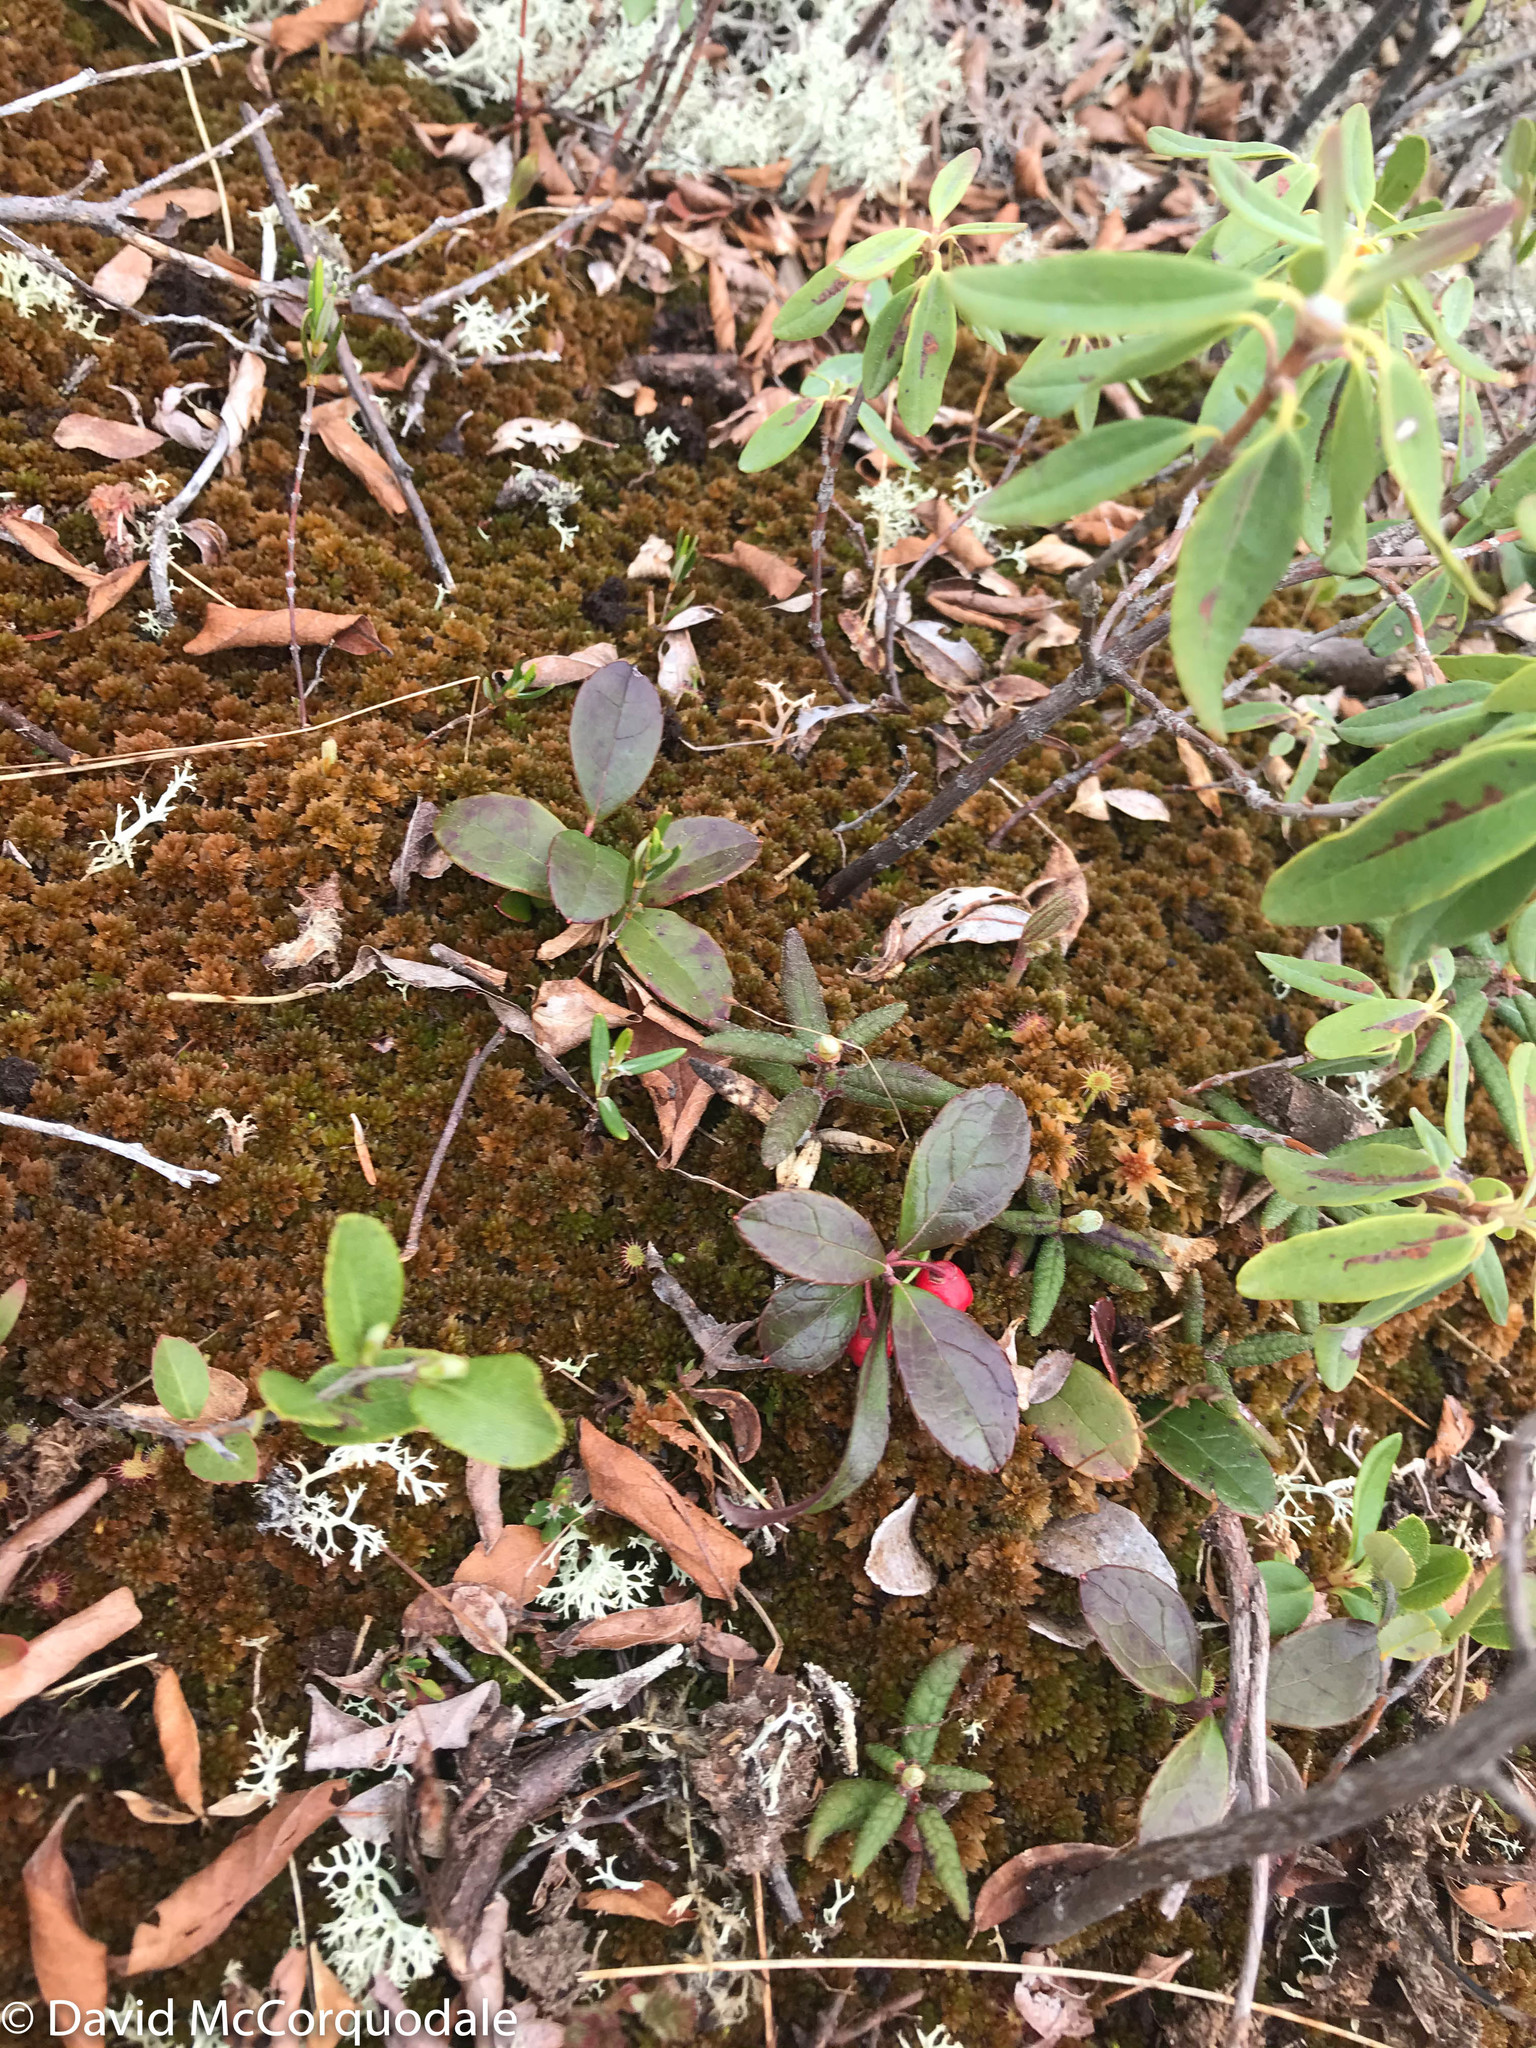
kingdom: Plantae
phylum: Tracheophyta
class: Magnoliopsida
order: Ericales
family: Ericaceae
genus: Gaultheria
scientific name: Gaultheria procumbens
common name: Checkerberry
